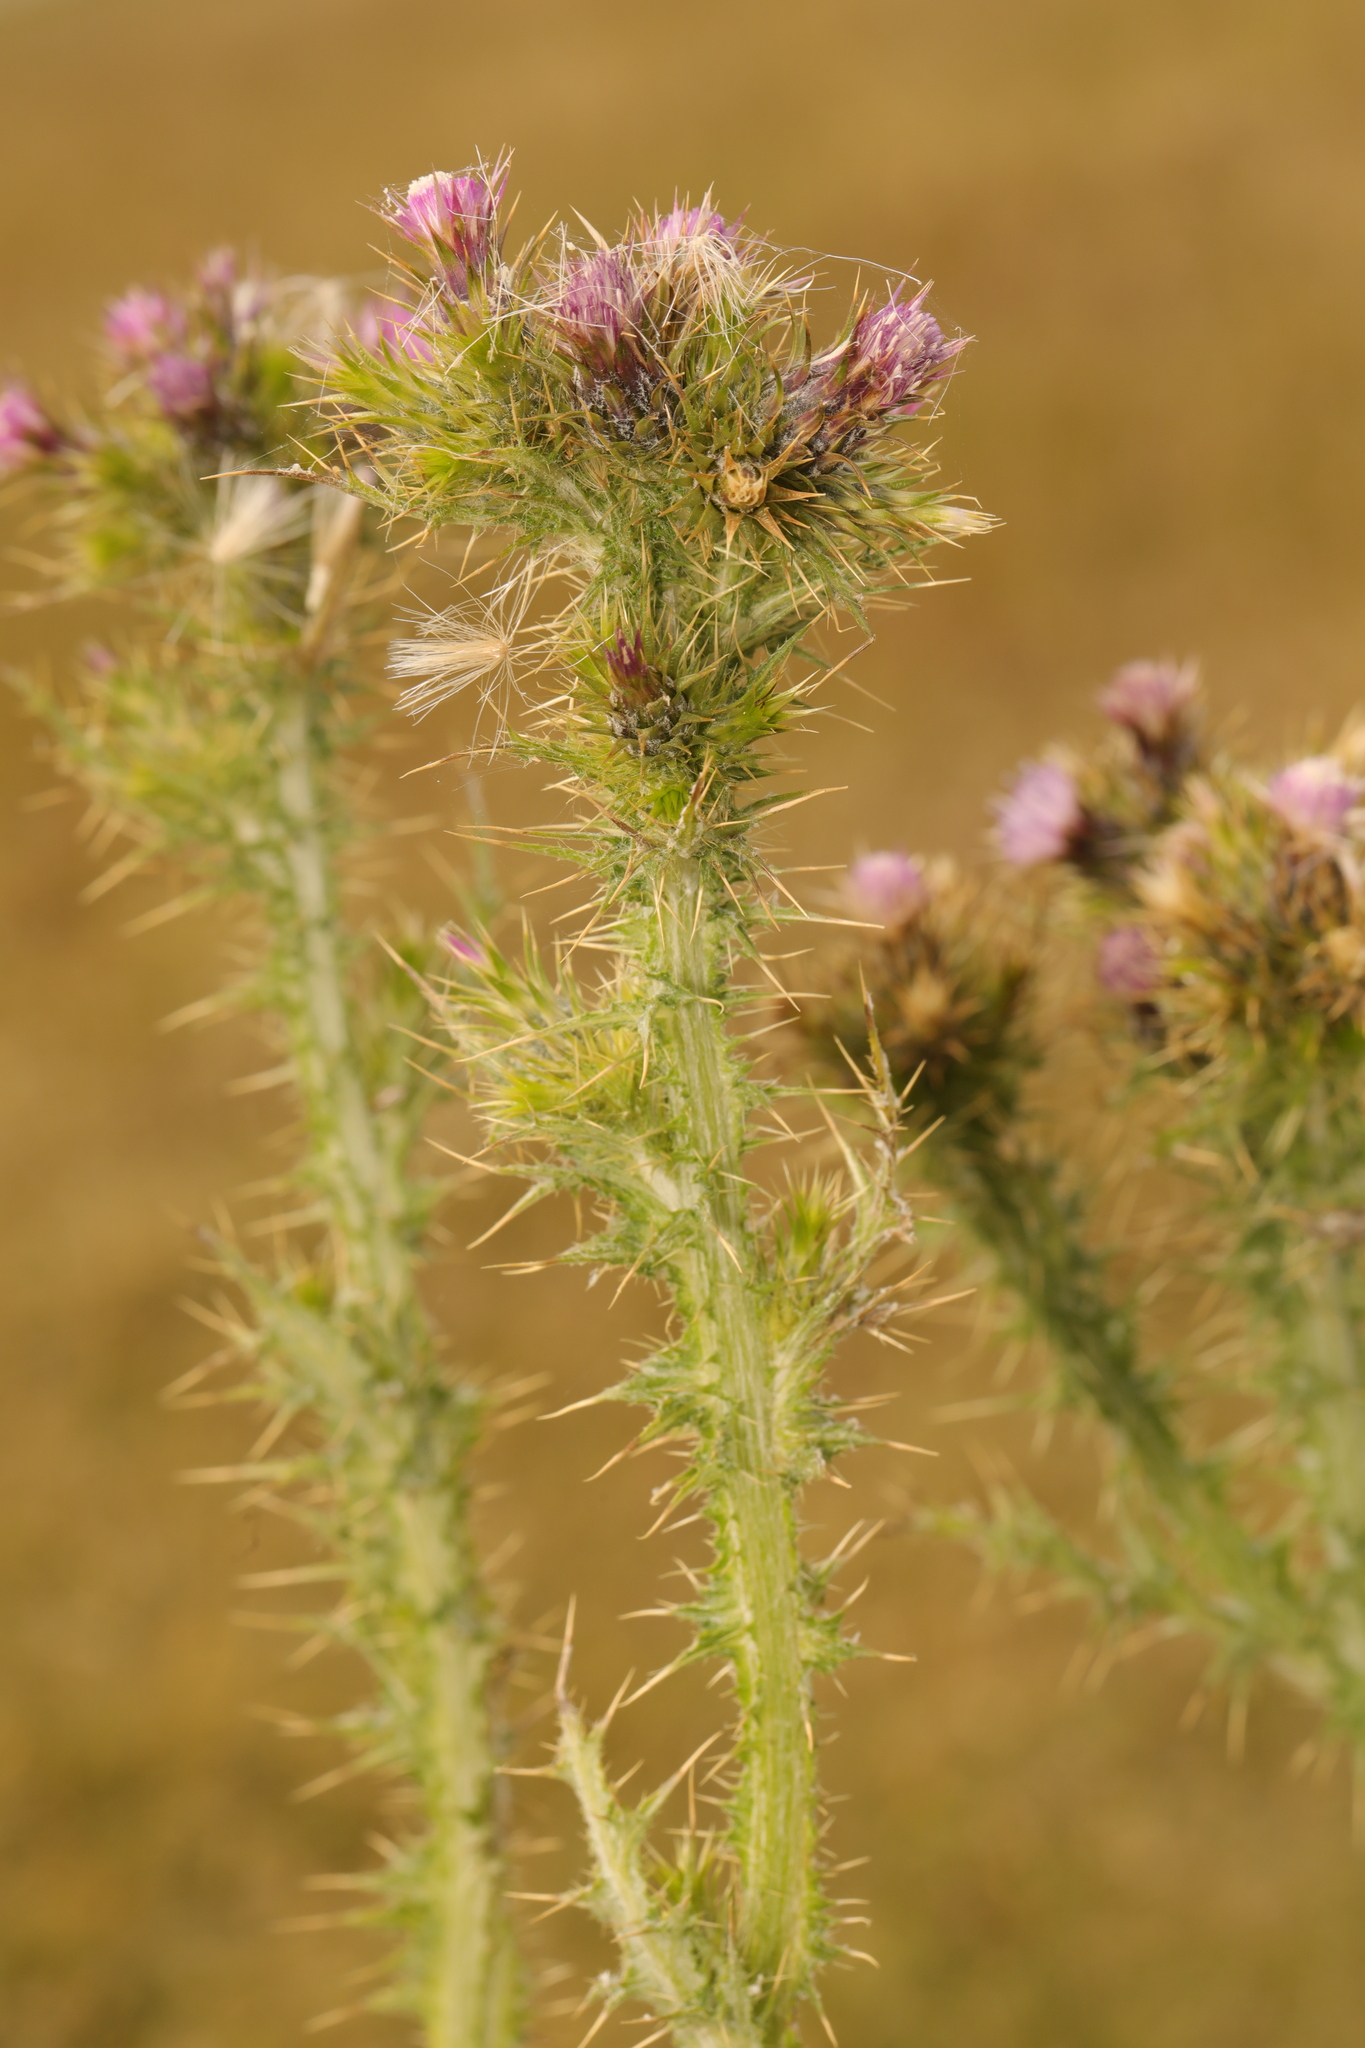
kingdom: Plantae
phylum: Tracheophyta
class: Magnoliopsida
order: Asterales
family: Asteraceae
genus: Carduus
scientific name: Carduus tenuiflorus
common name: Slender thistle
